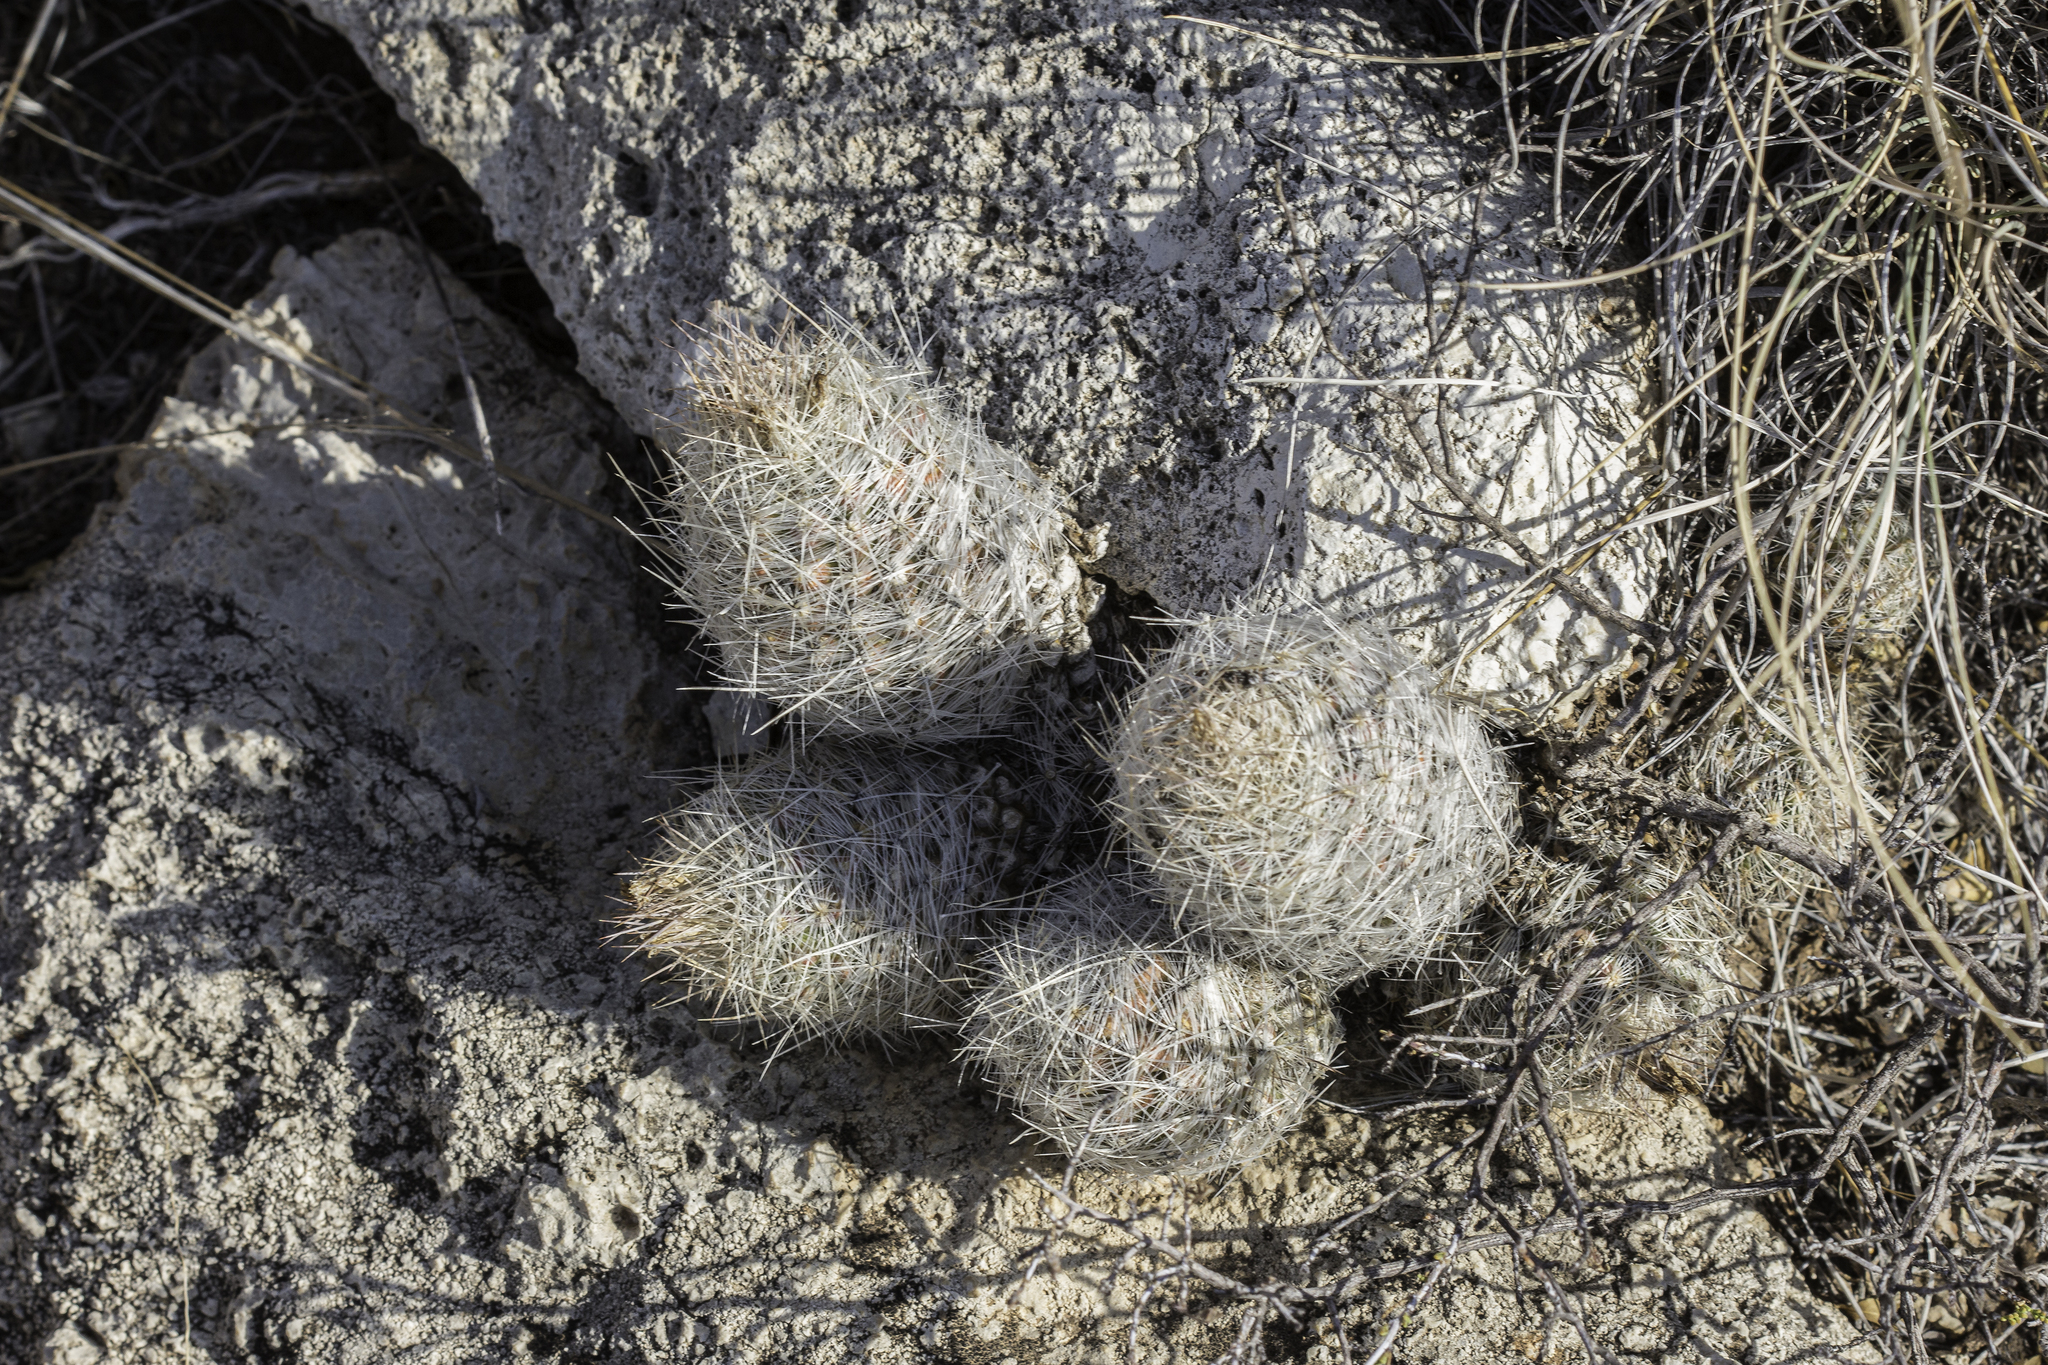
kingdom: Plantae
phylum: Tracheophyta
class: Magnoliopsida
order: Caryophyllales
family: Cactaceae
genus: Pelecyphora
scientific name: Pelecyphora tuberculosa
